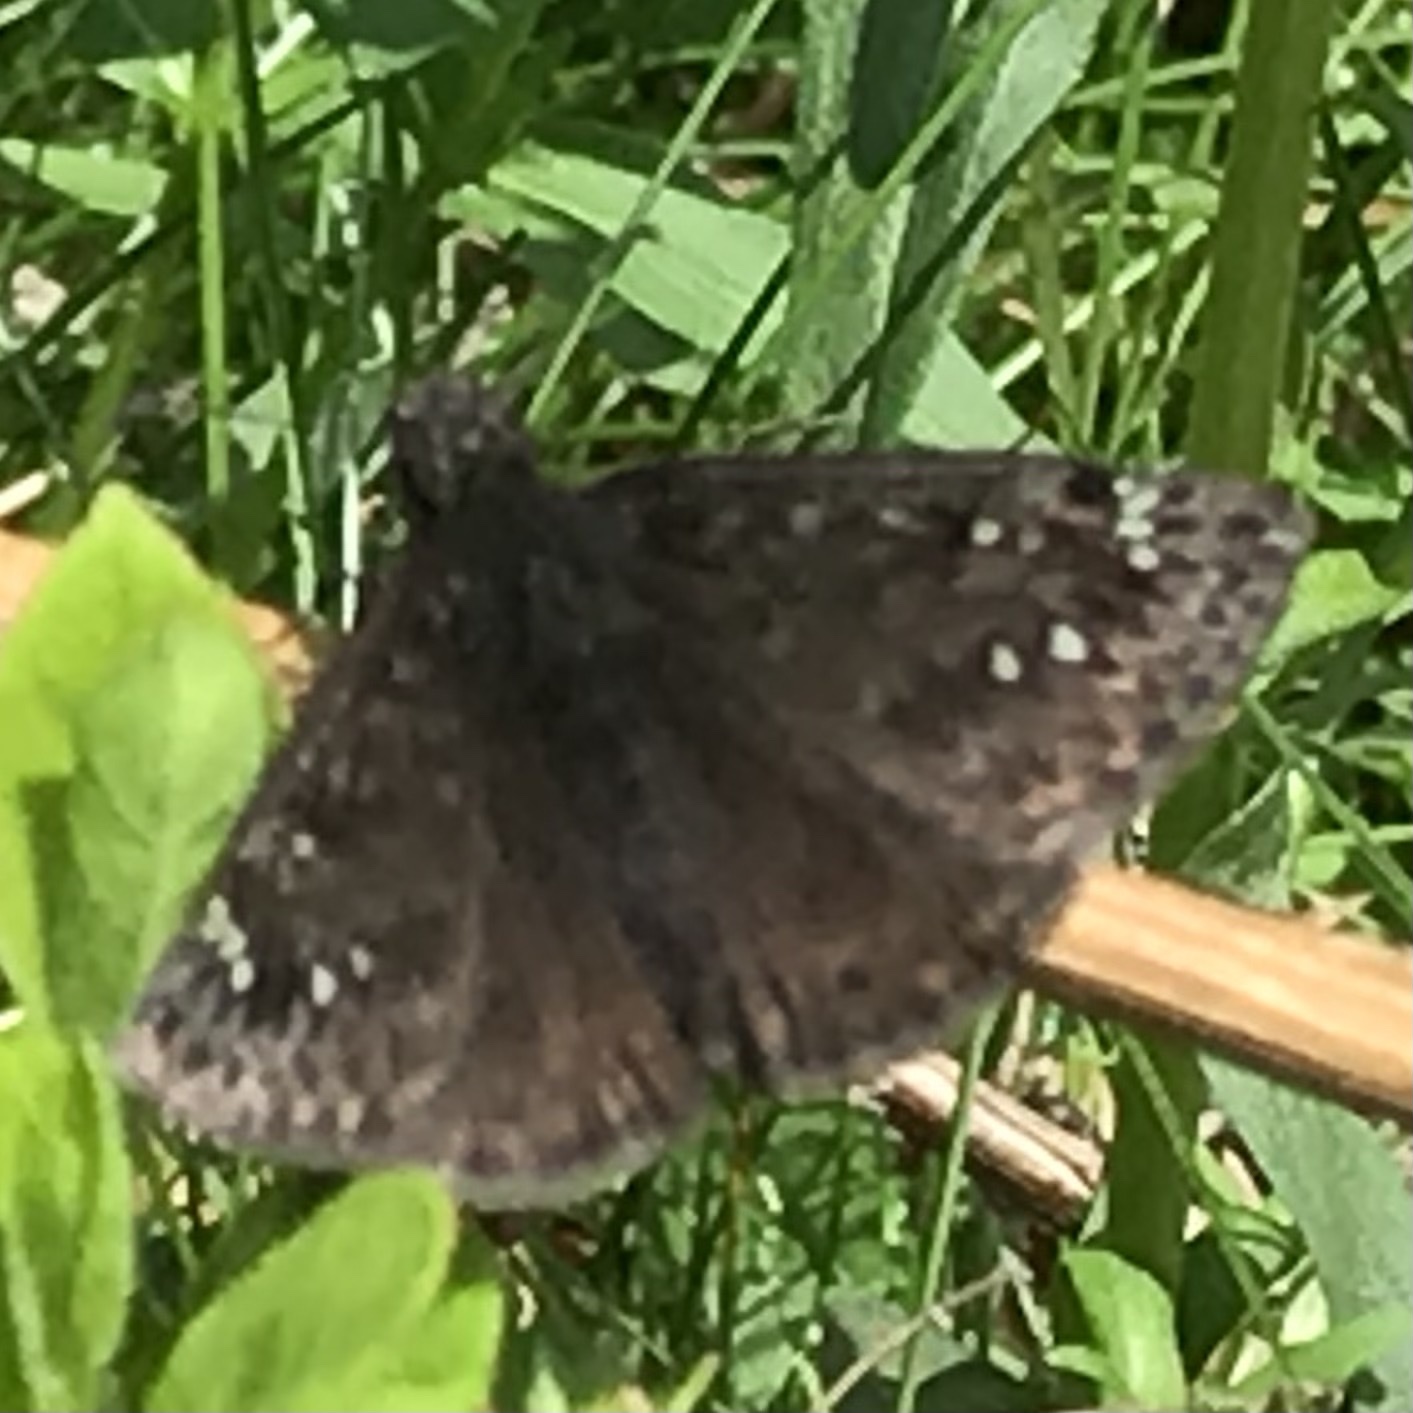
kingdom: Animalia
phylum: Arthropoda
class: Insecta
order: Lepidoptera
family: Hesperiidae
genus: Erynnis
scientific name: Erynnis horatius
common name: Horace's duskywing
